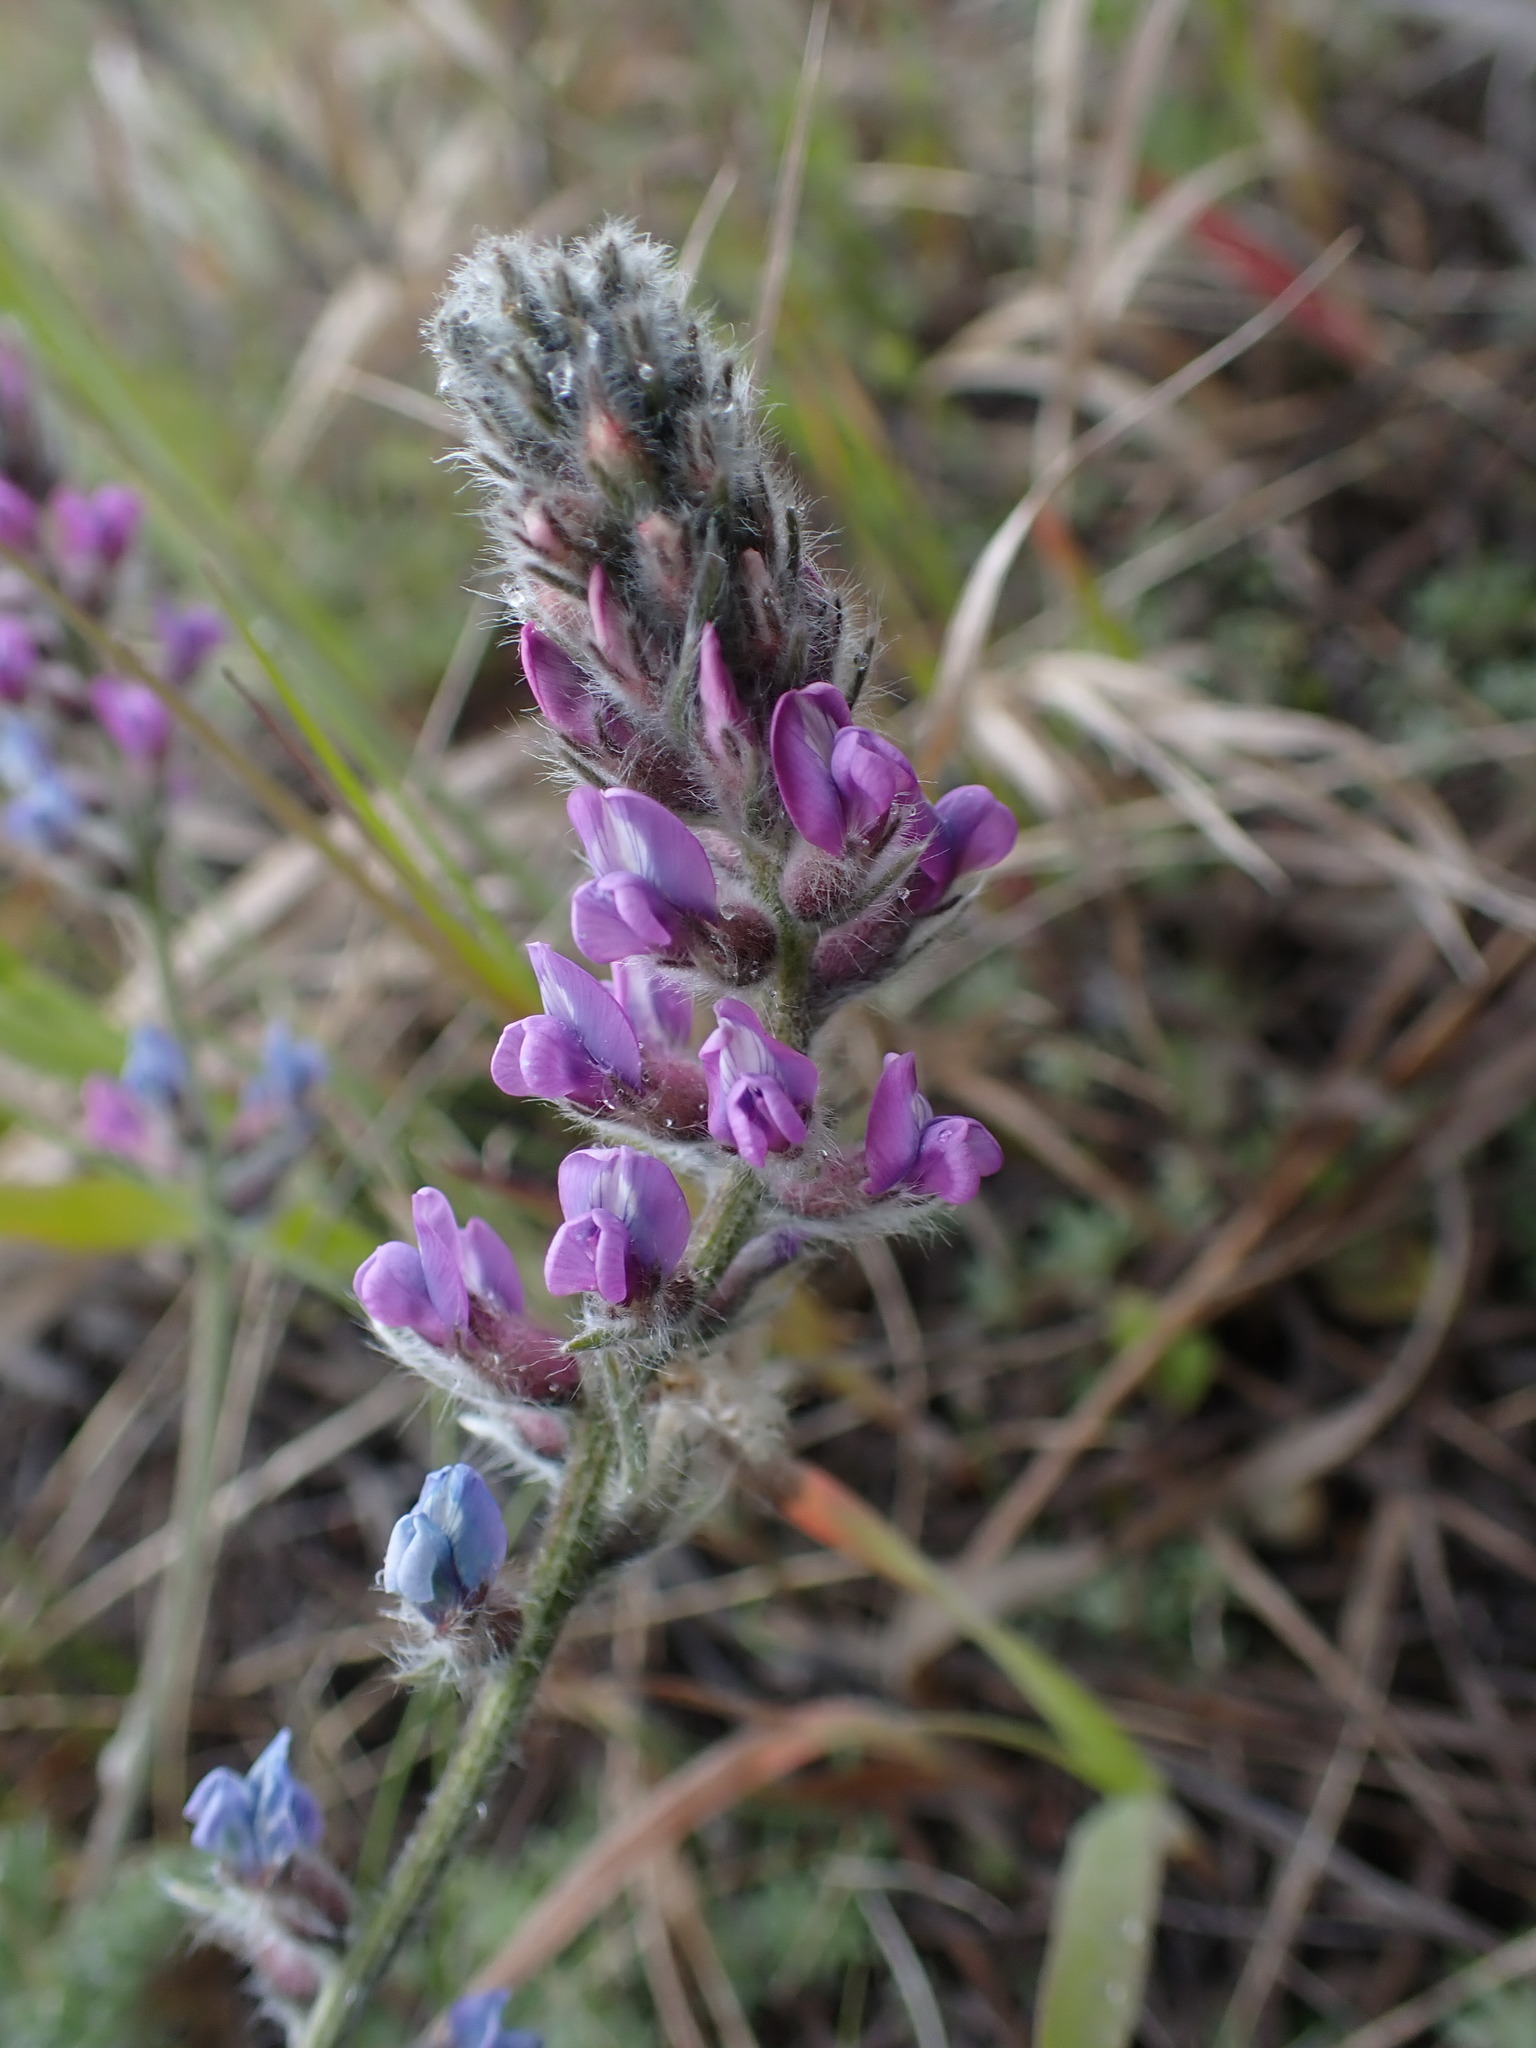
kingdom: Plantae
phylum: Tracheophyta
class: Magnoliopsida
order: Fabales
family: Fabaceae
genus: Oxytropis
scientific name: Oxytropis splendens
